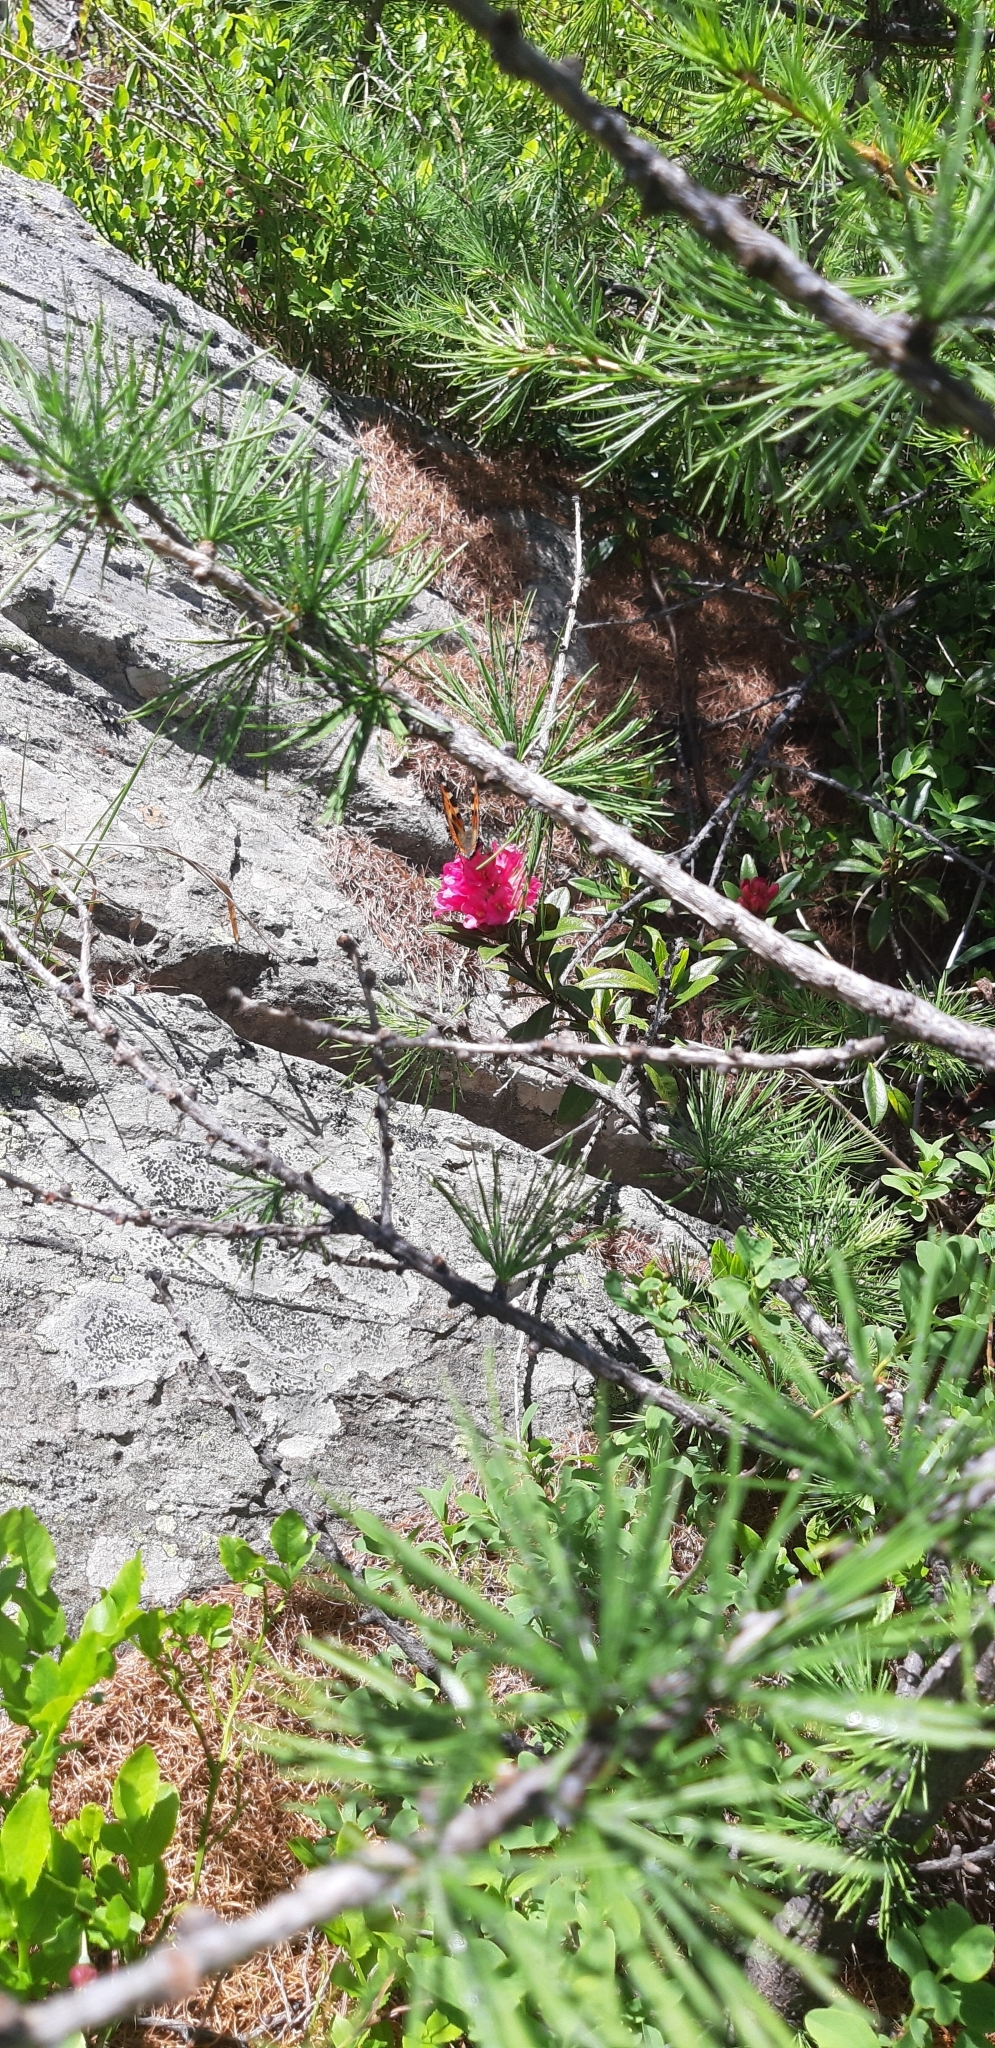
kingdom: Animalia
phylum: Arthropoda
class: Insecta
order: Lepidoptera
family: Nymphalidae
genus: Aglais
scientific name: Aglais urticae
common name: Small tortoiseshell
